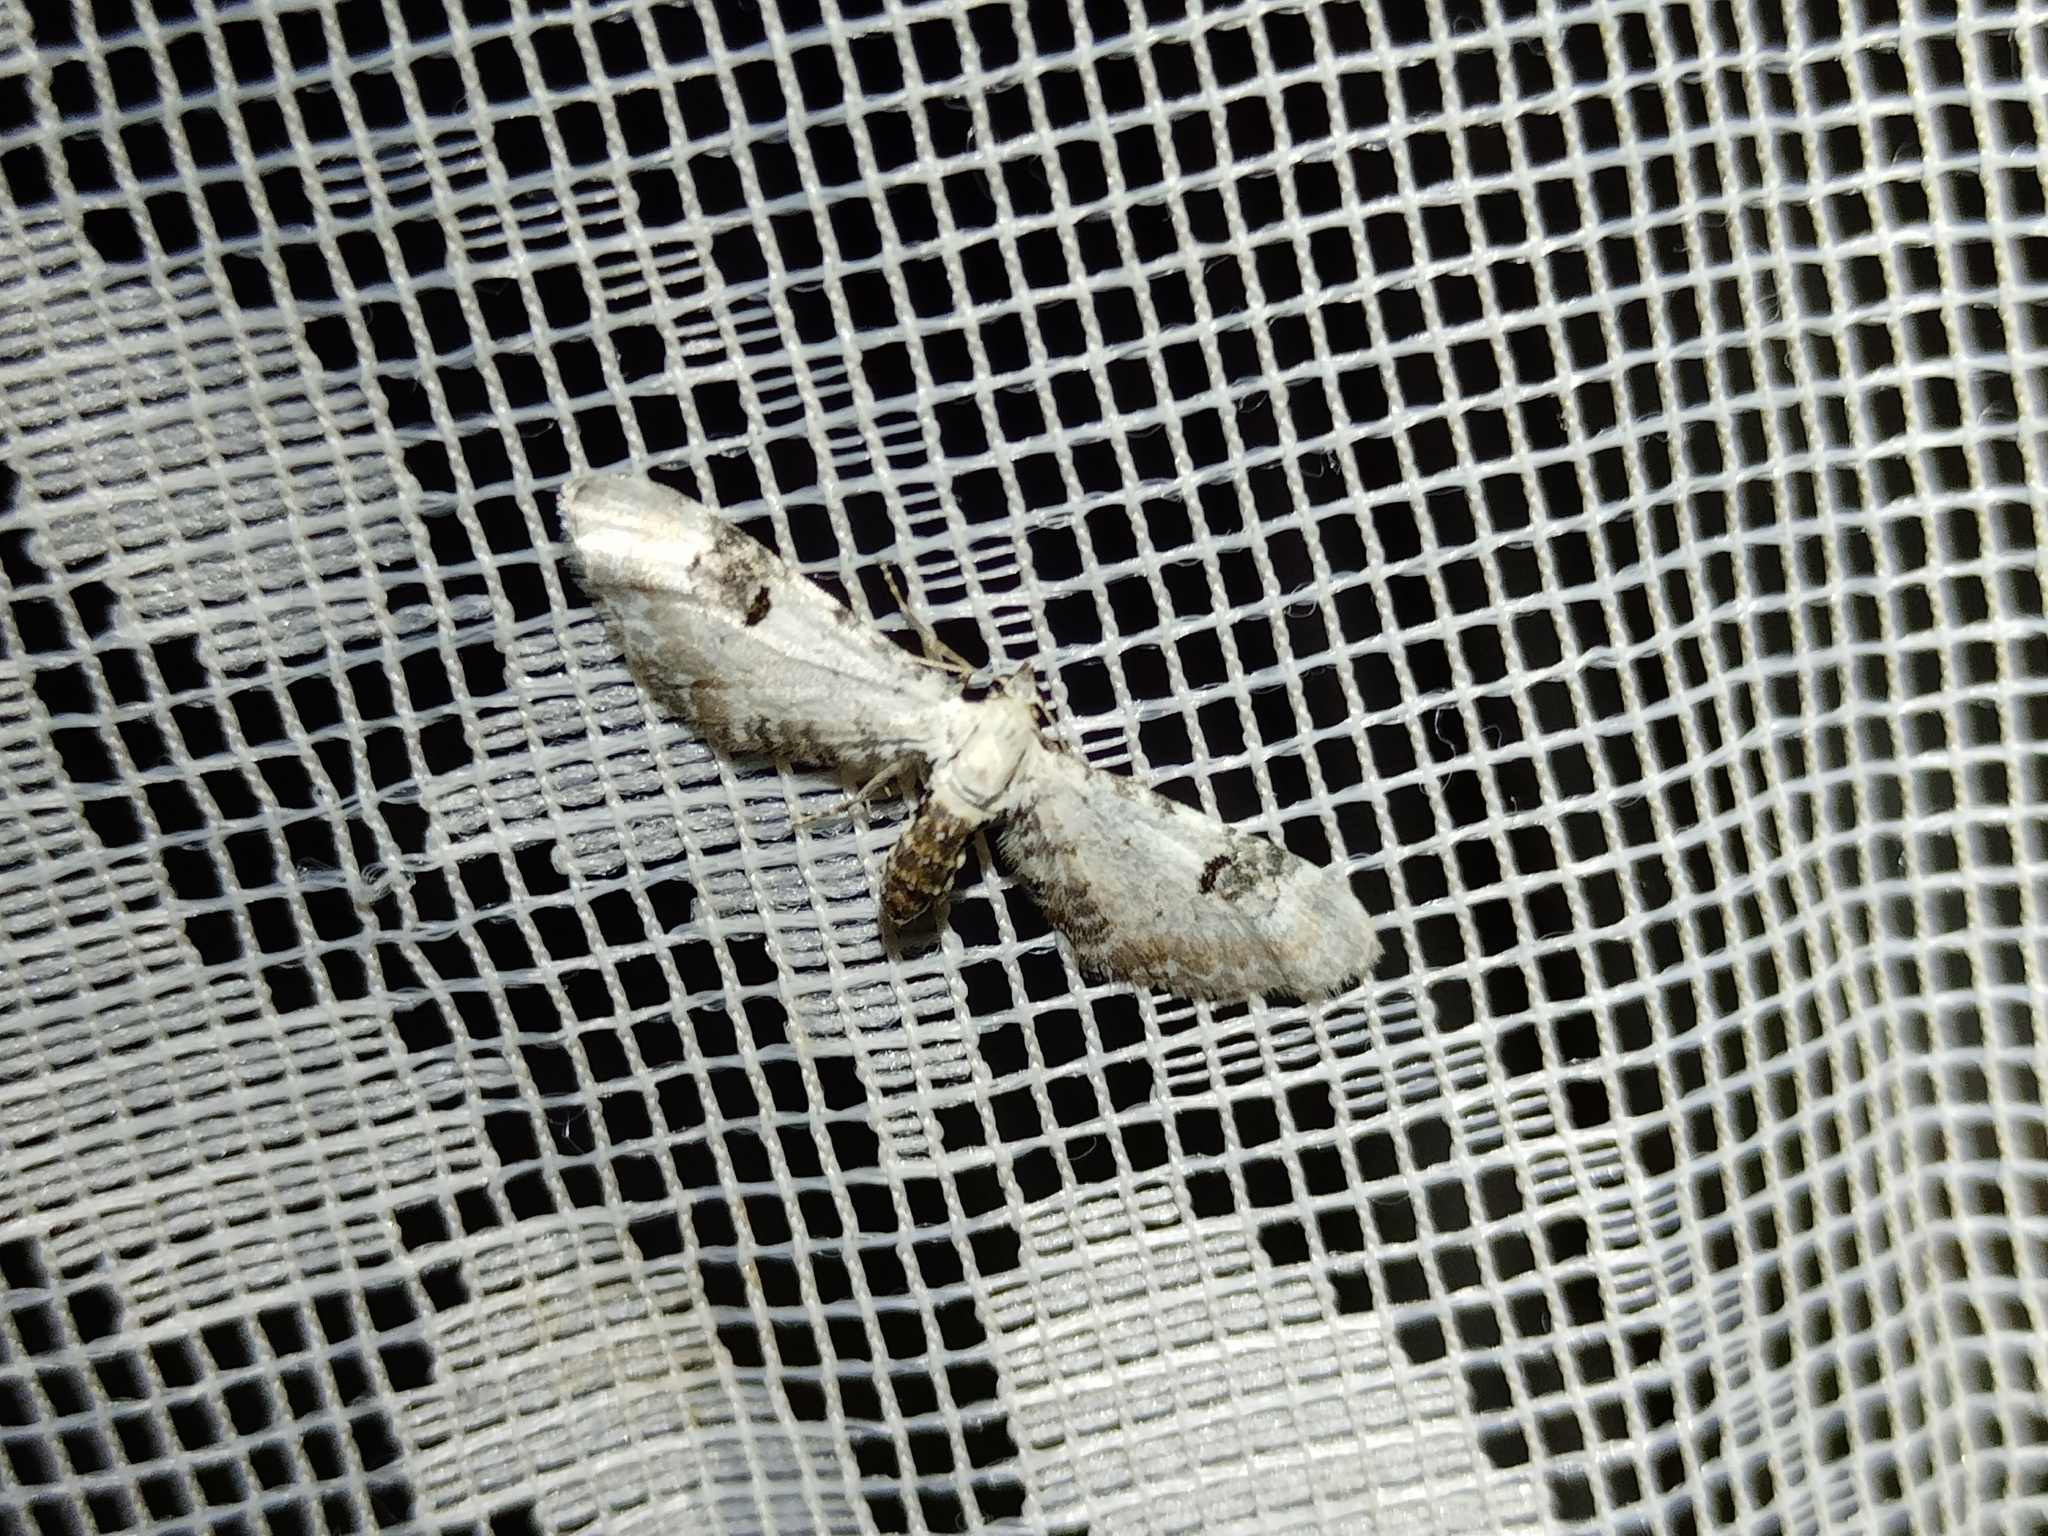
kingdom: Animalia
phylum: Arthropoda
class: Insecta
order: Lepidoptera
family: Geometridae
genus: Eupithecia
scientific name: Eupithecia centaureata
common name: Lime-speck pug
